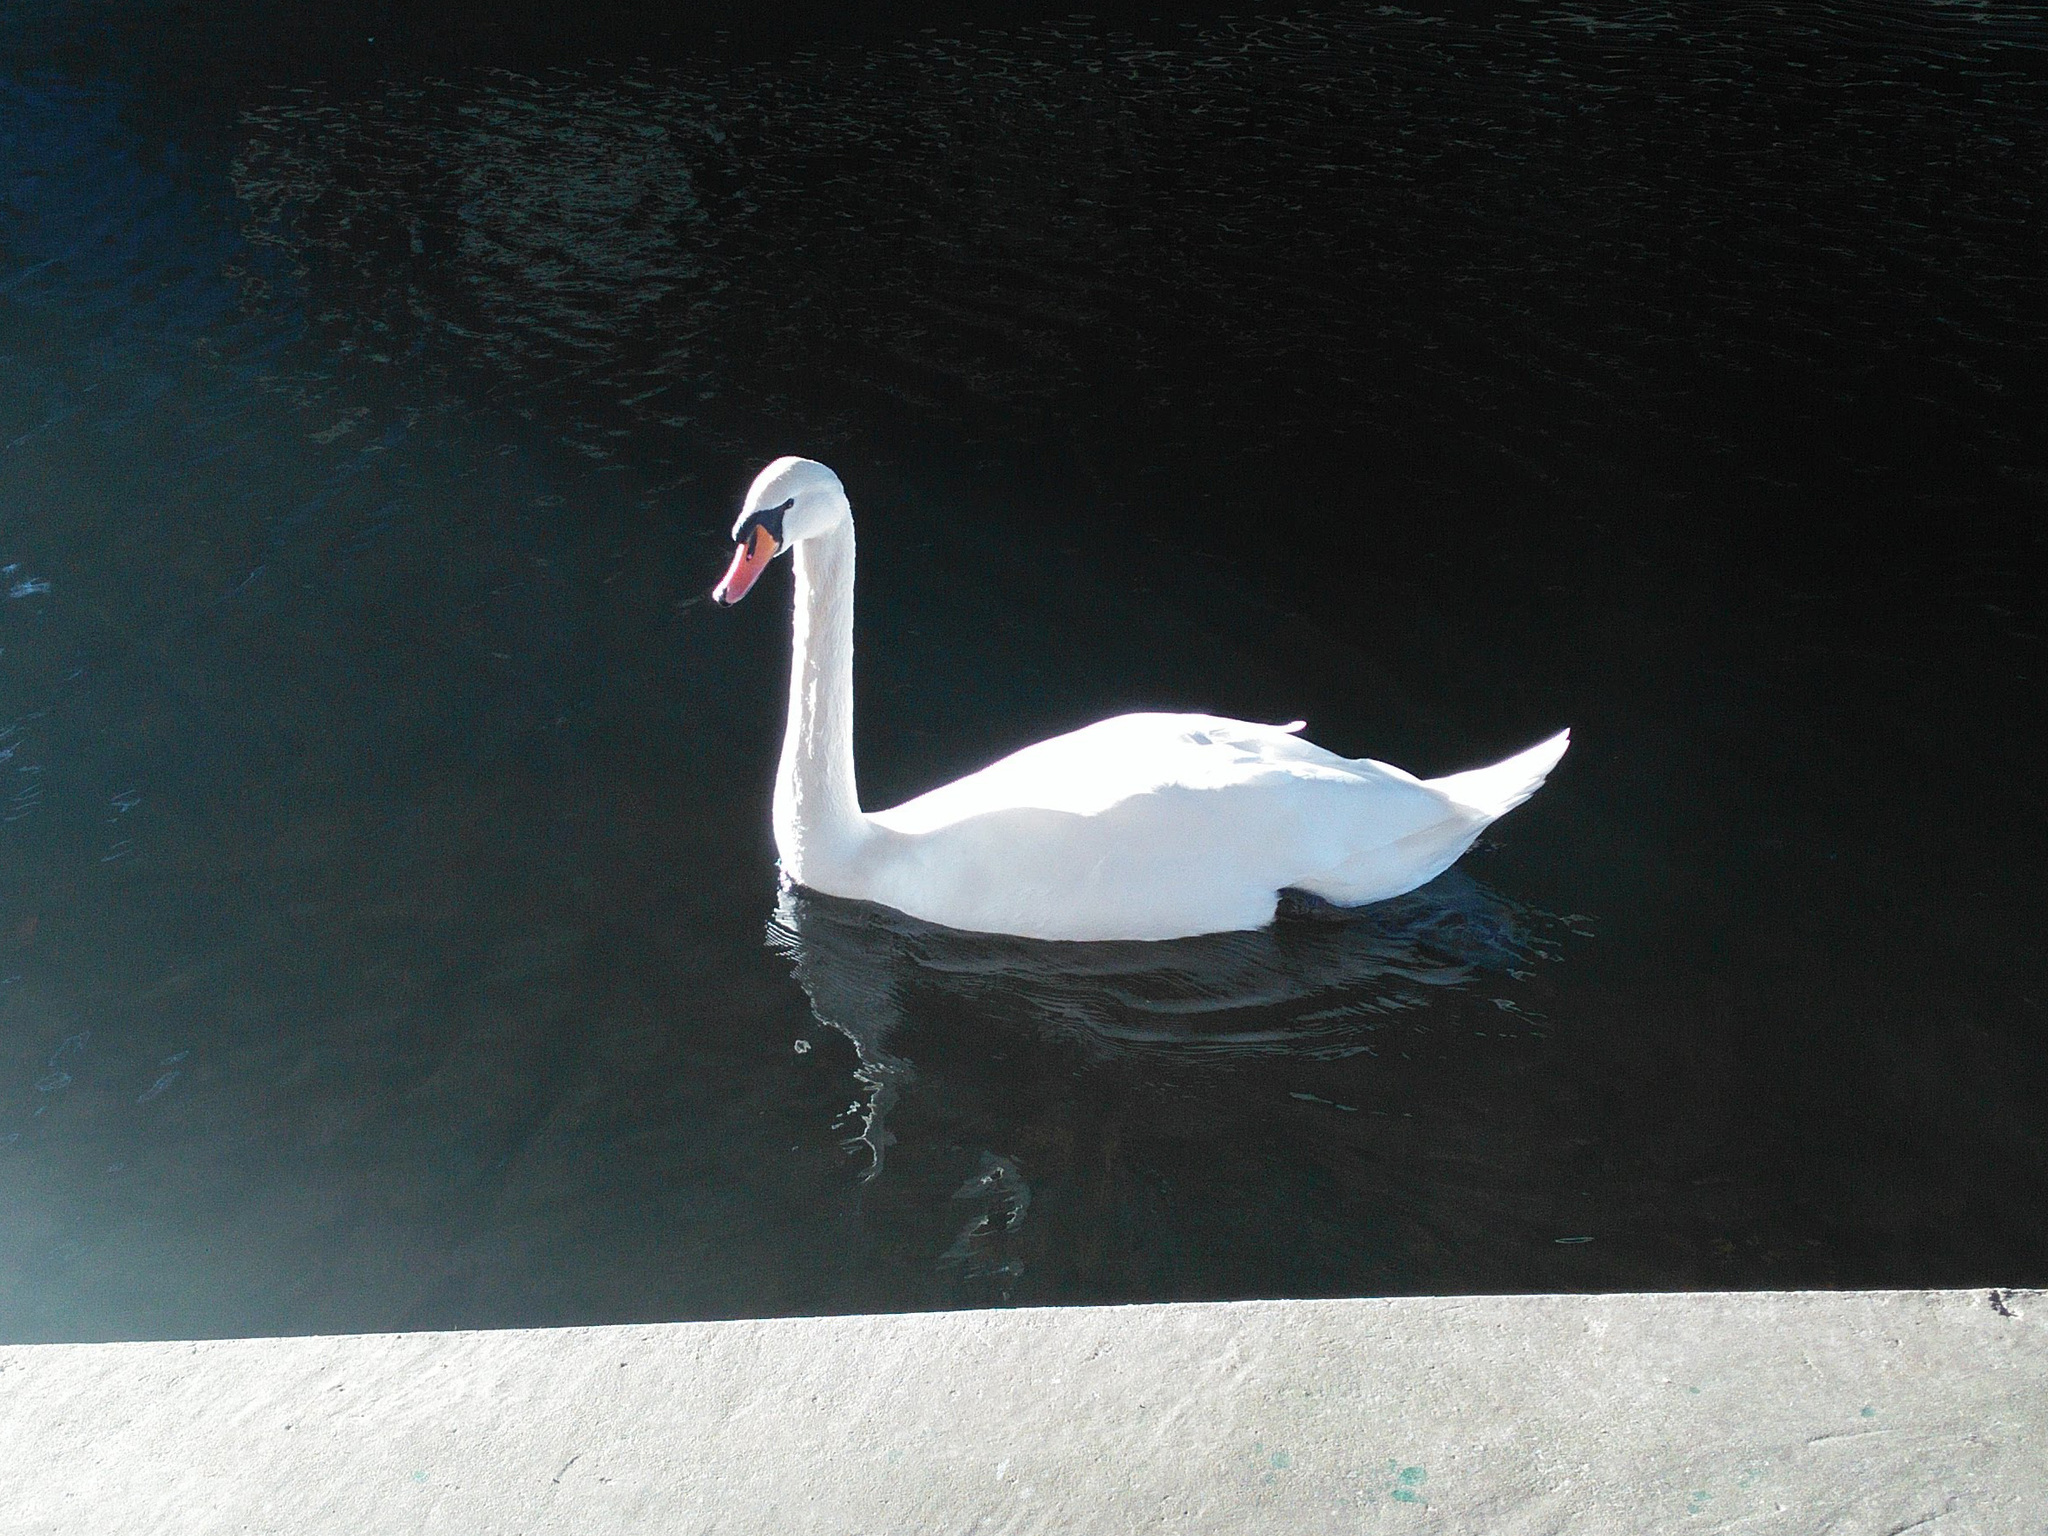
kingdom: Animalia
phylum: Chordata
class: Aves
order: Anseriformes
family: Anatidae
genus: Cygnus
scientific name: Cygnus olor
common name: Mute swan
